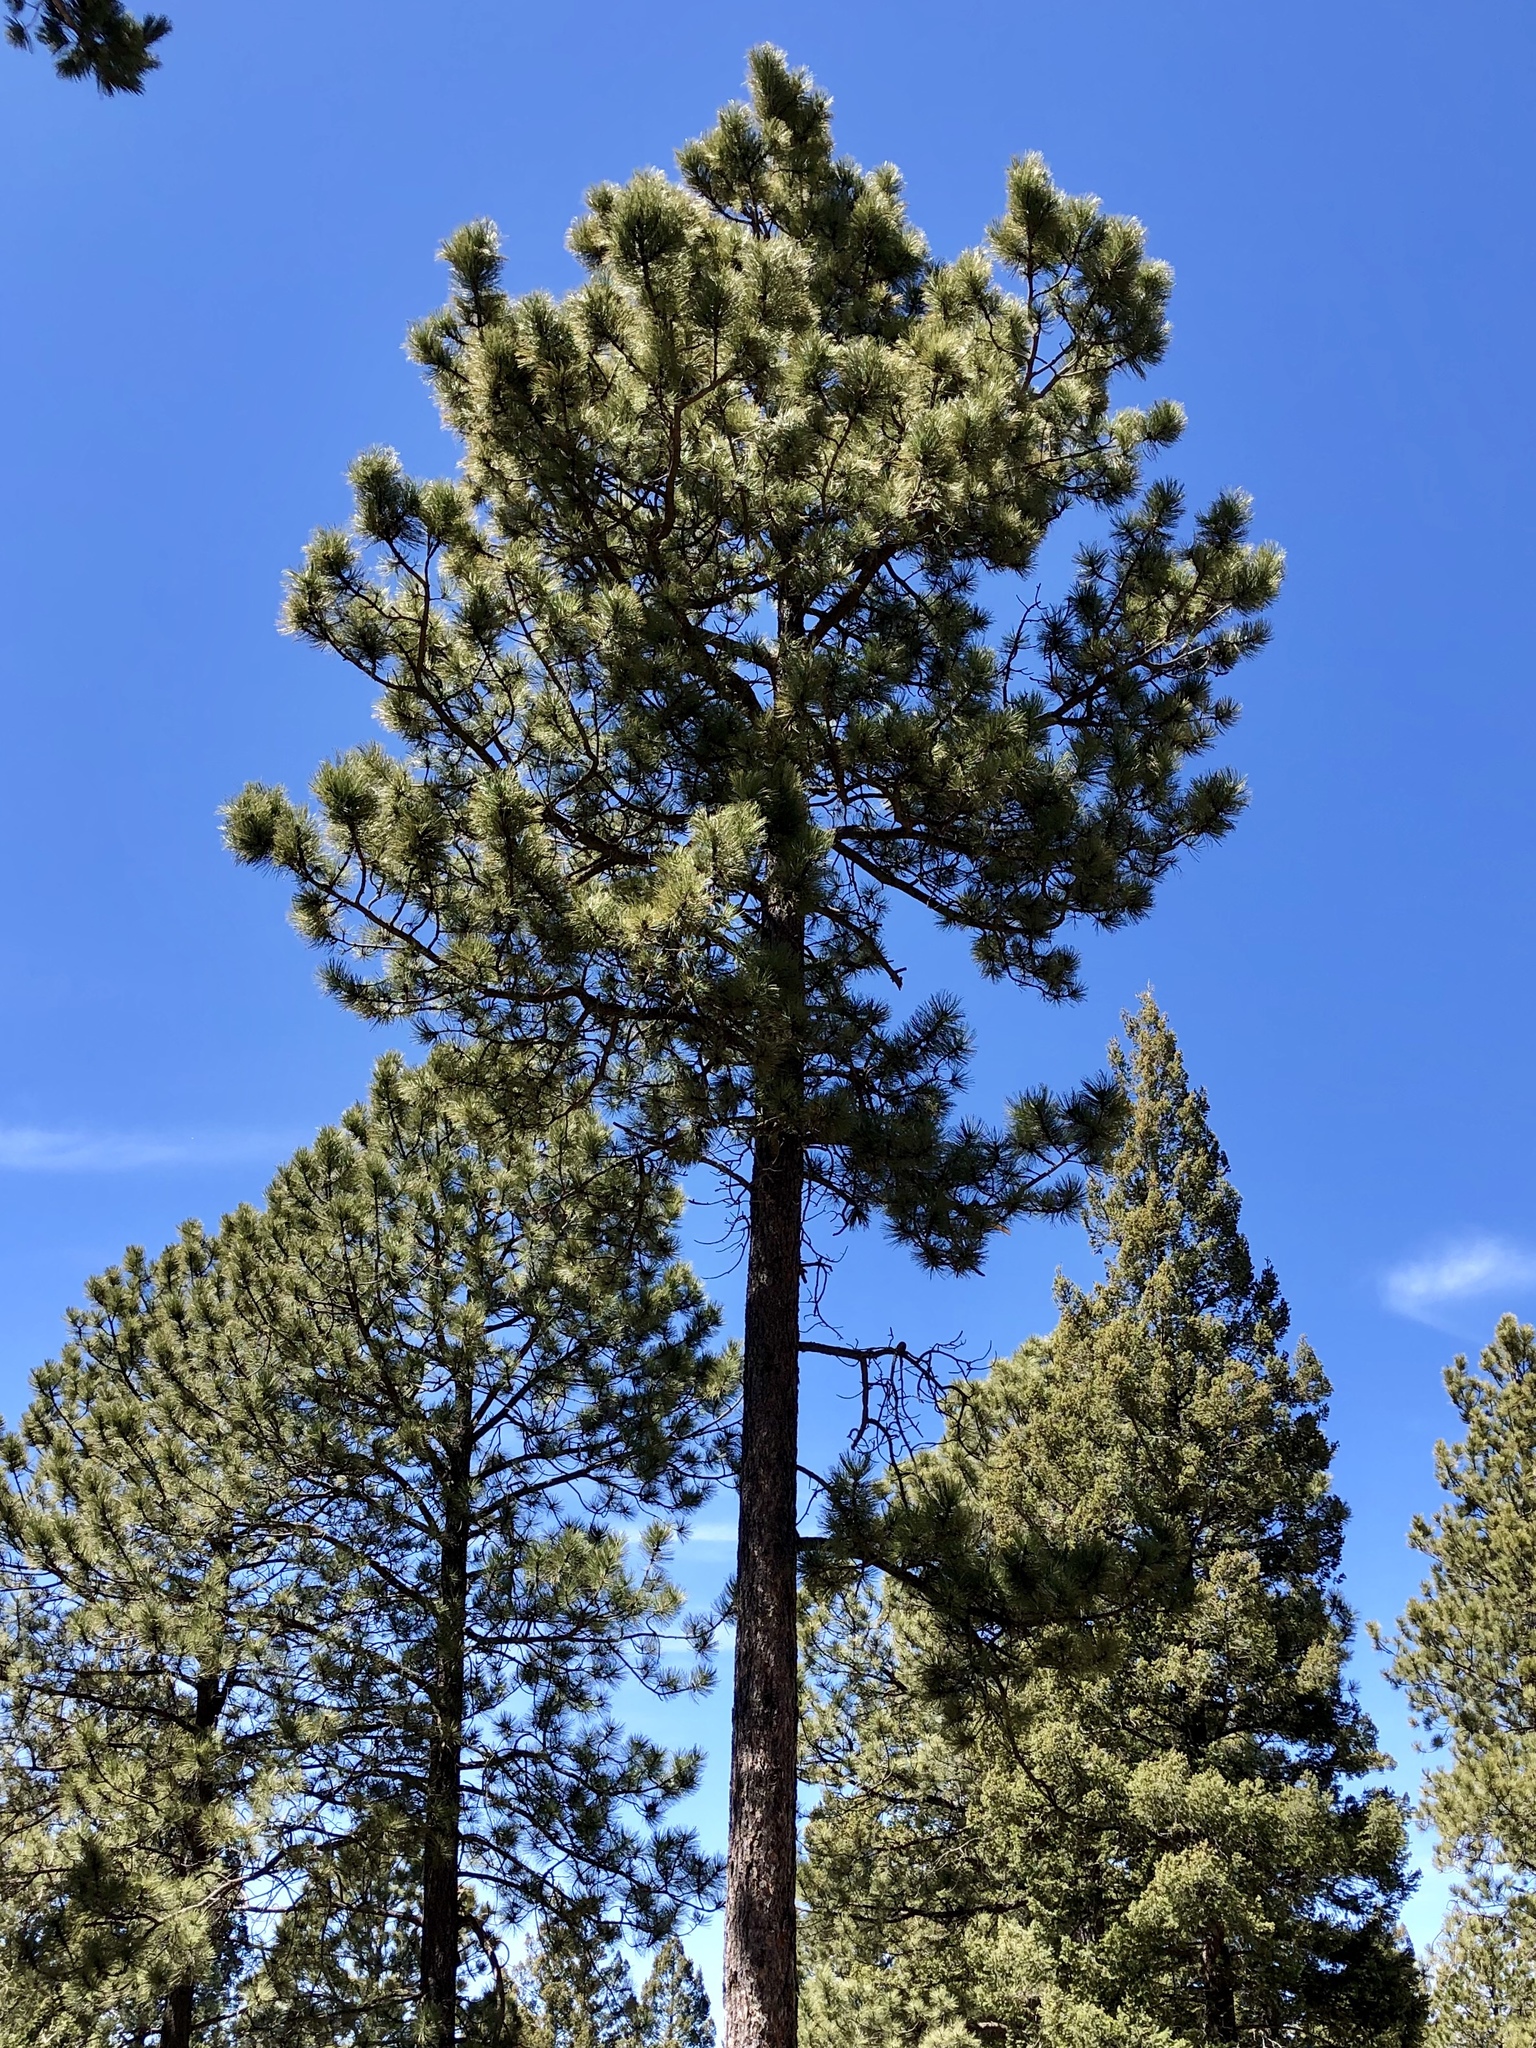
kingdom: Plantae
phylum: Tracheophyta
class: Pinopsida
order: Pinales
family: Pinaceae
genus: Pinus
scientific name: Pinus ponderosa
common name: Western yellow-pine
